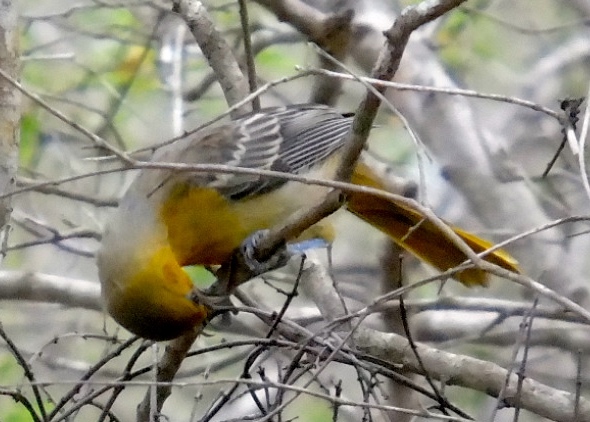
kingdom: Animalia
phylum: Chordata
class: Aves
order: Passeriformes
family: Icteridae
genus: Icterus
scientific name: Icterus bullockii
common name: Bullock's oriole
